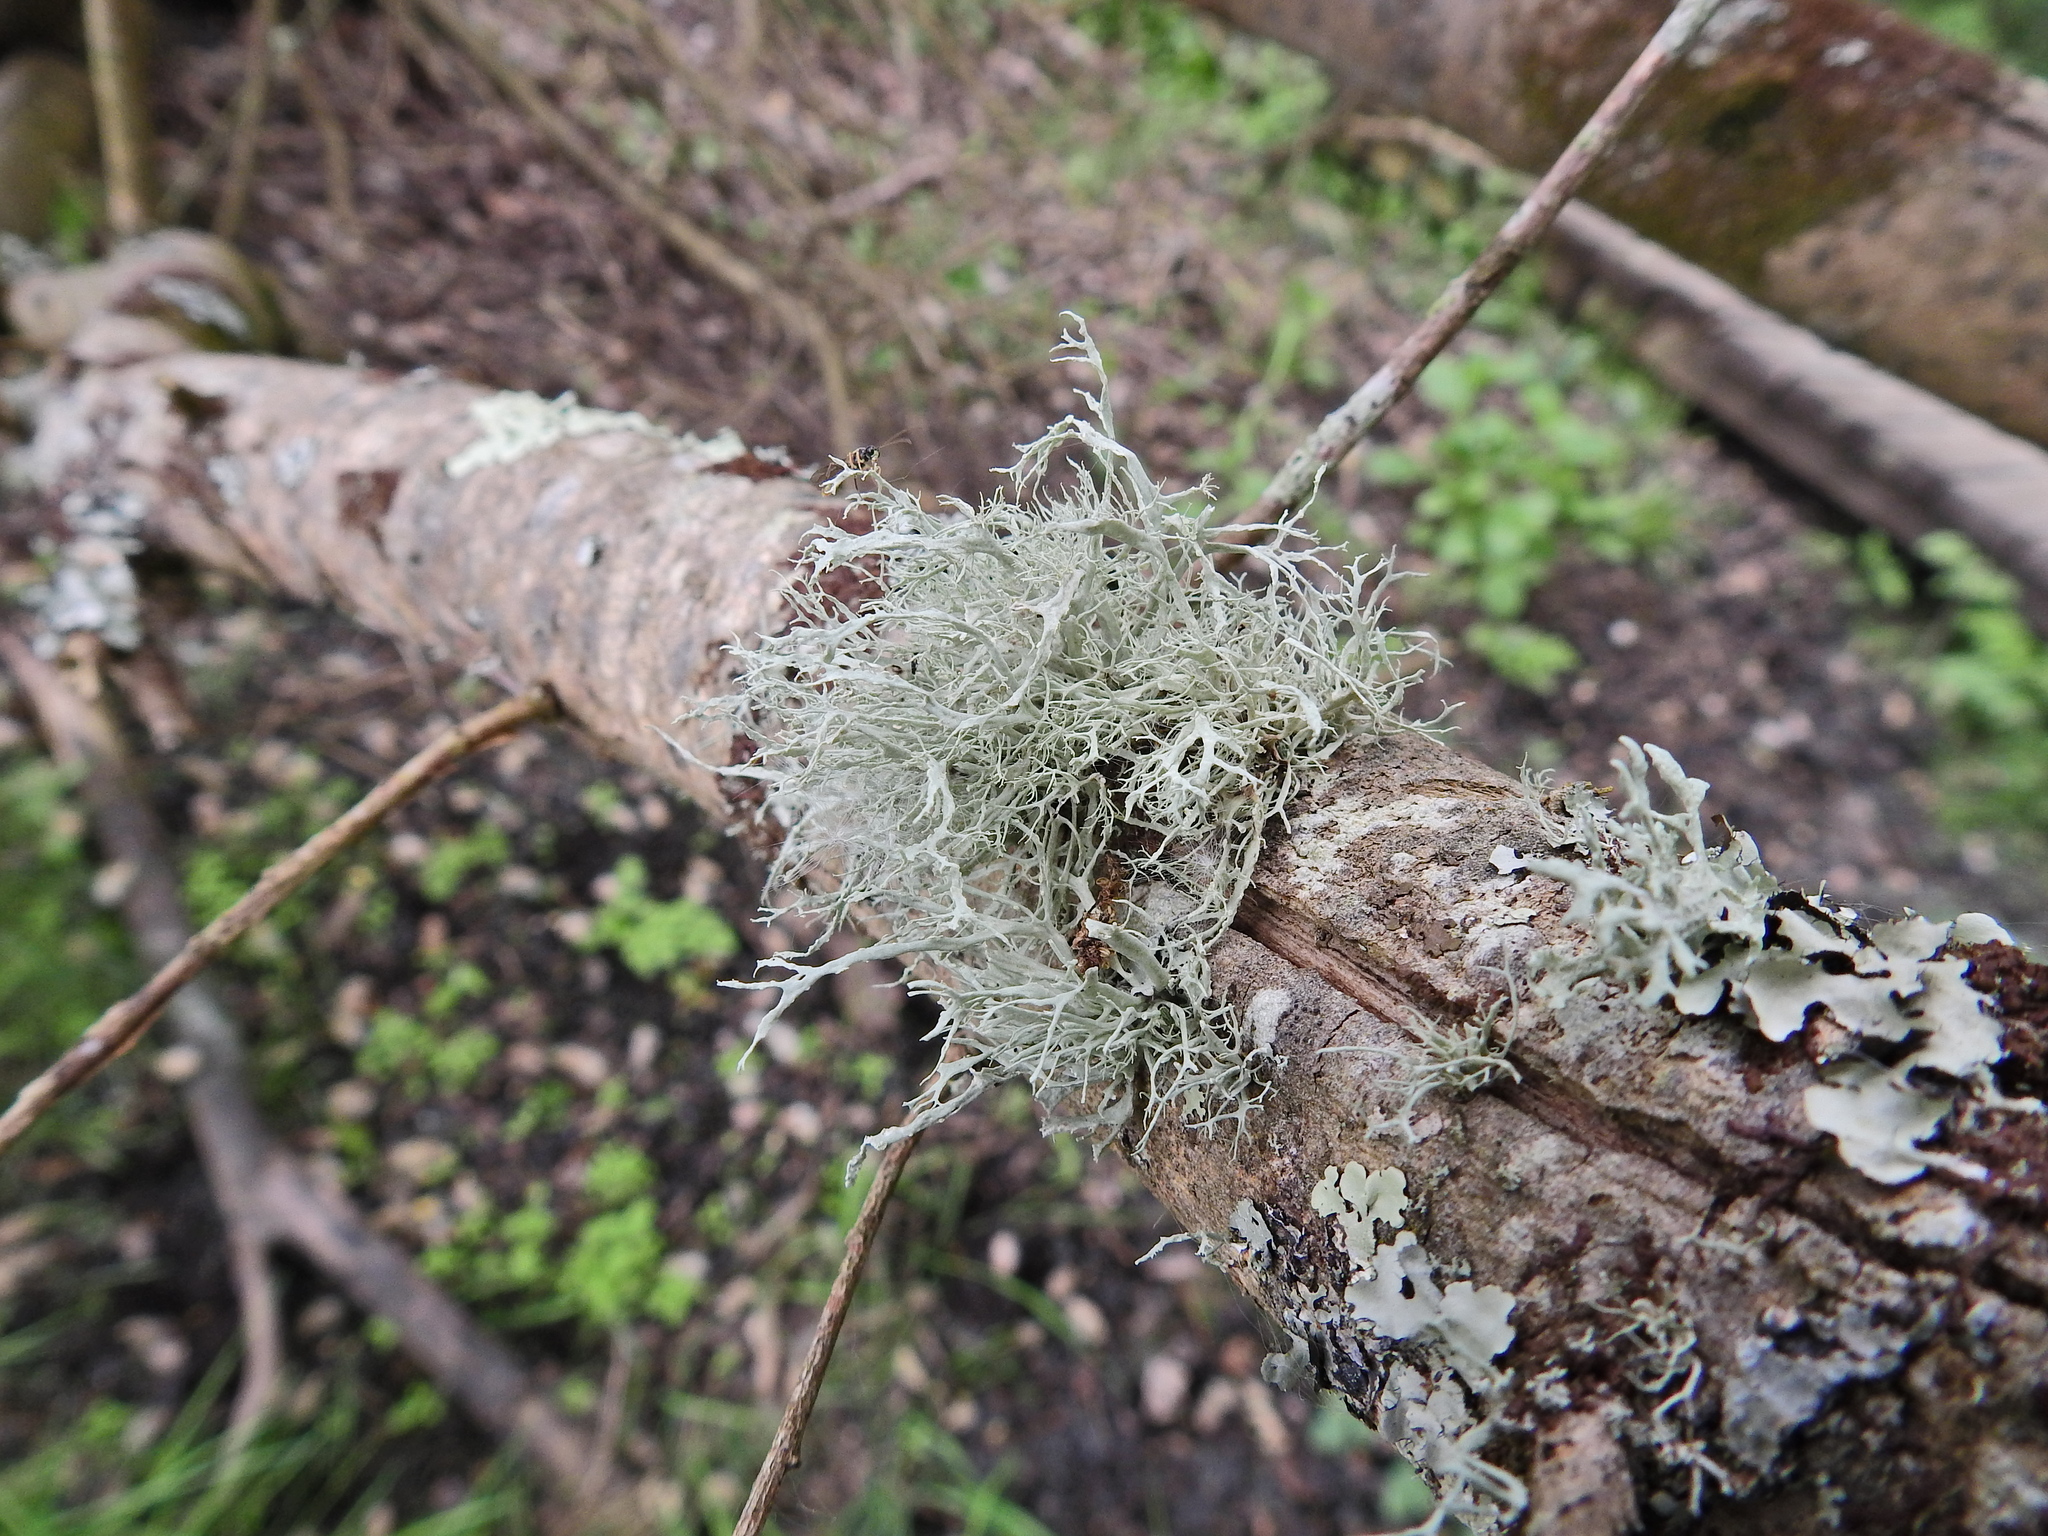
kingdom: Fungi
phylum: Ascomycota
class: Lecanoromycetes
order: Lecanorales
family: Ramalinaceae
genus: Ramalina
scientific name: Ramalina farinacea
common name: Farinose cartilage lichen
